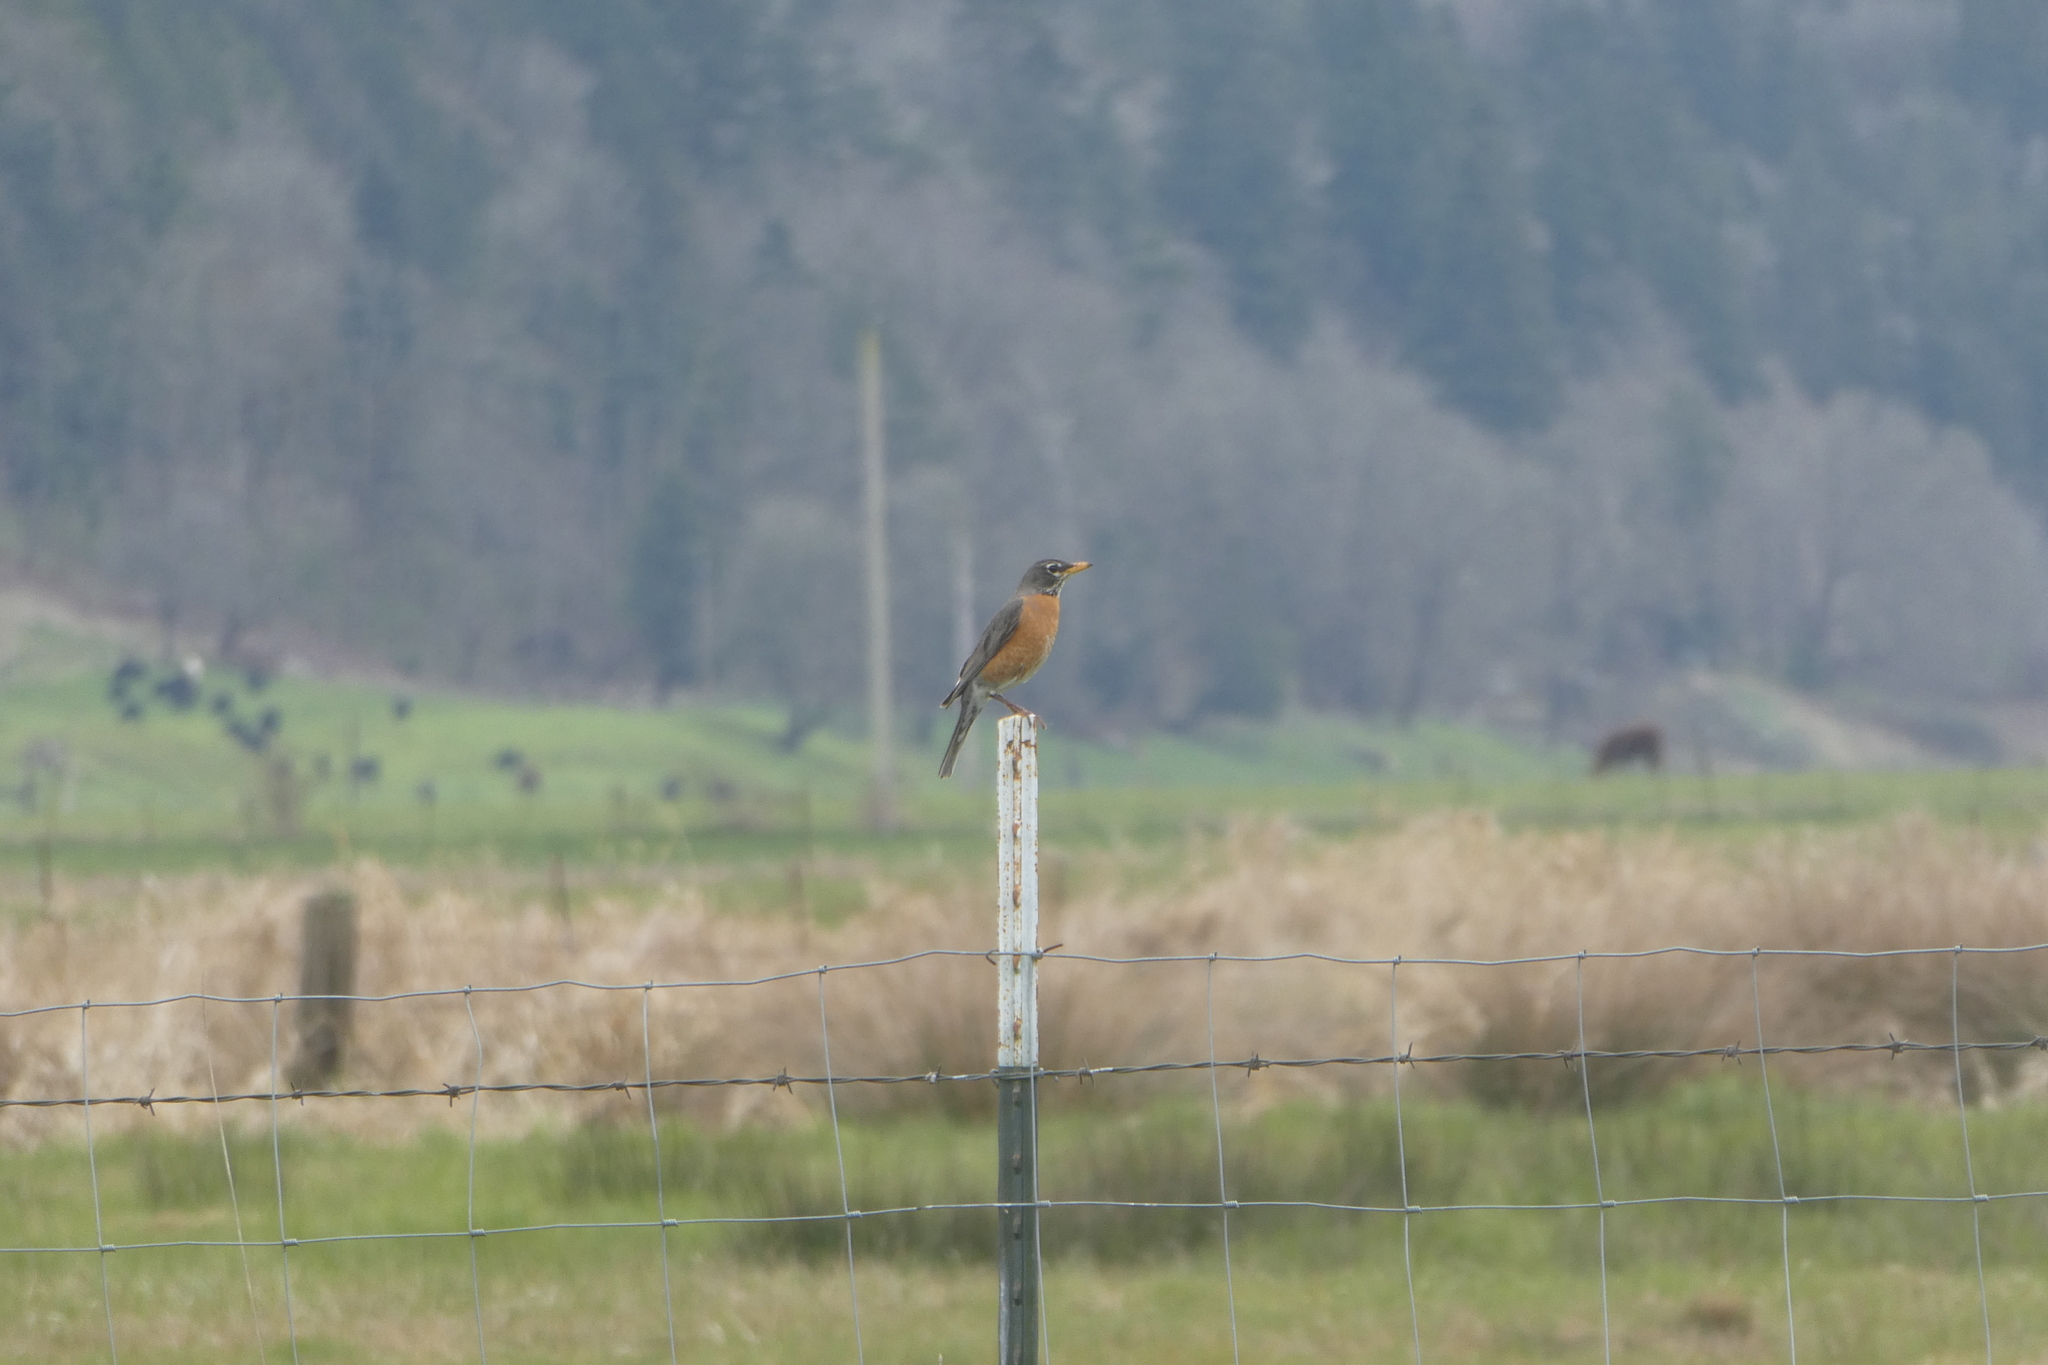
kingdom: Animalia
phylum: Chordata
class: Aves
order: Passeriformes
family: Turdidae
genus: Turdus
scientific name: Turdus migratorius
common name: American robin
